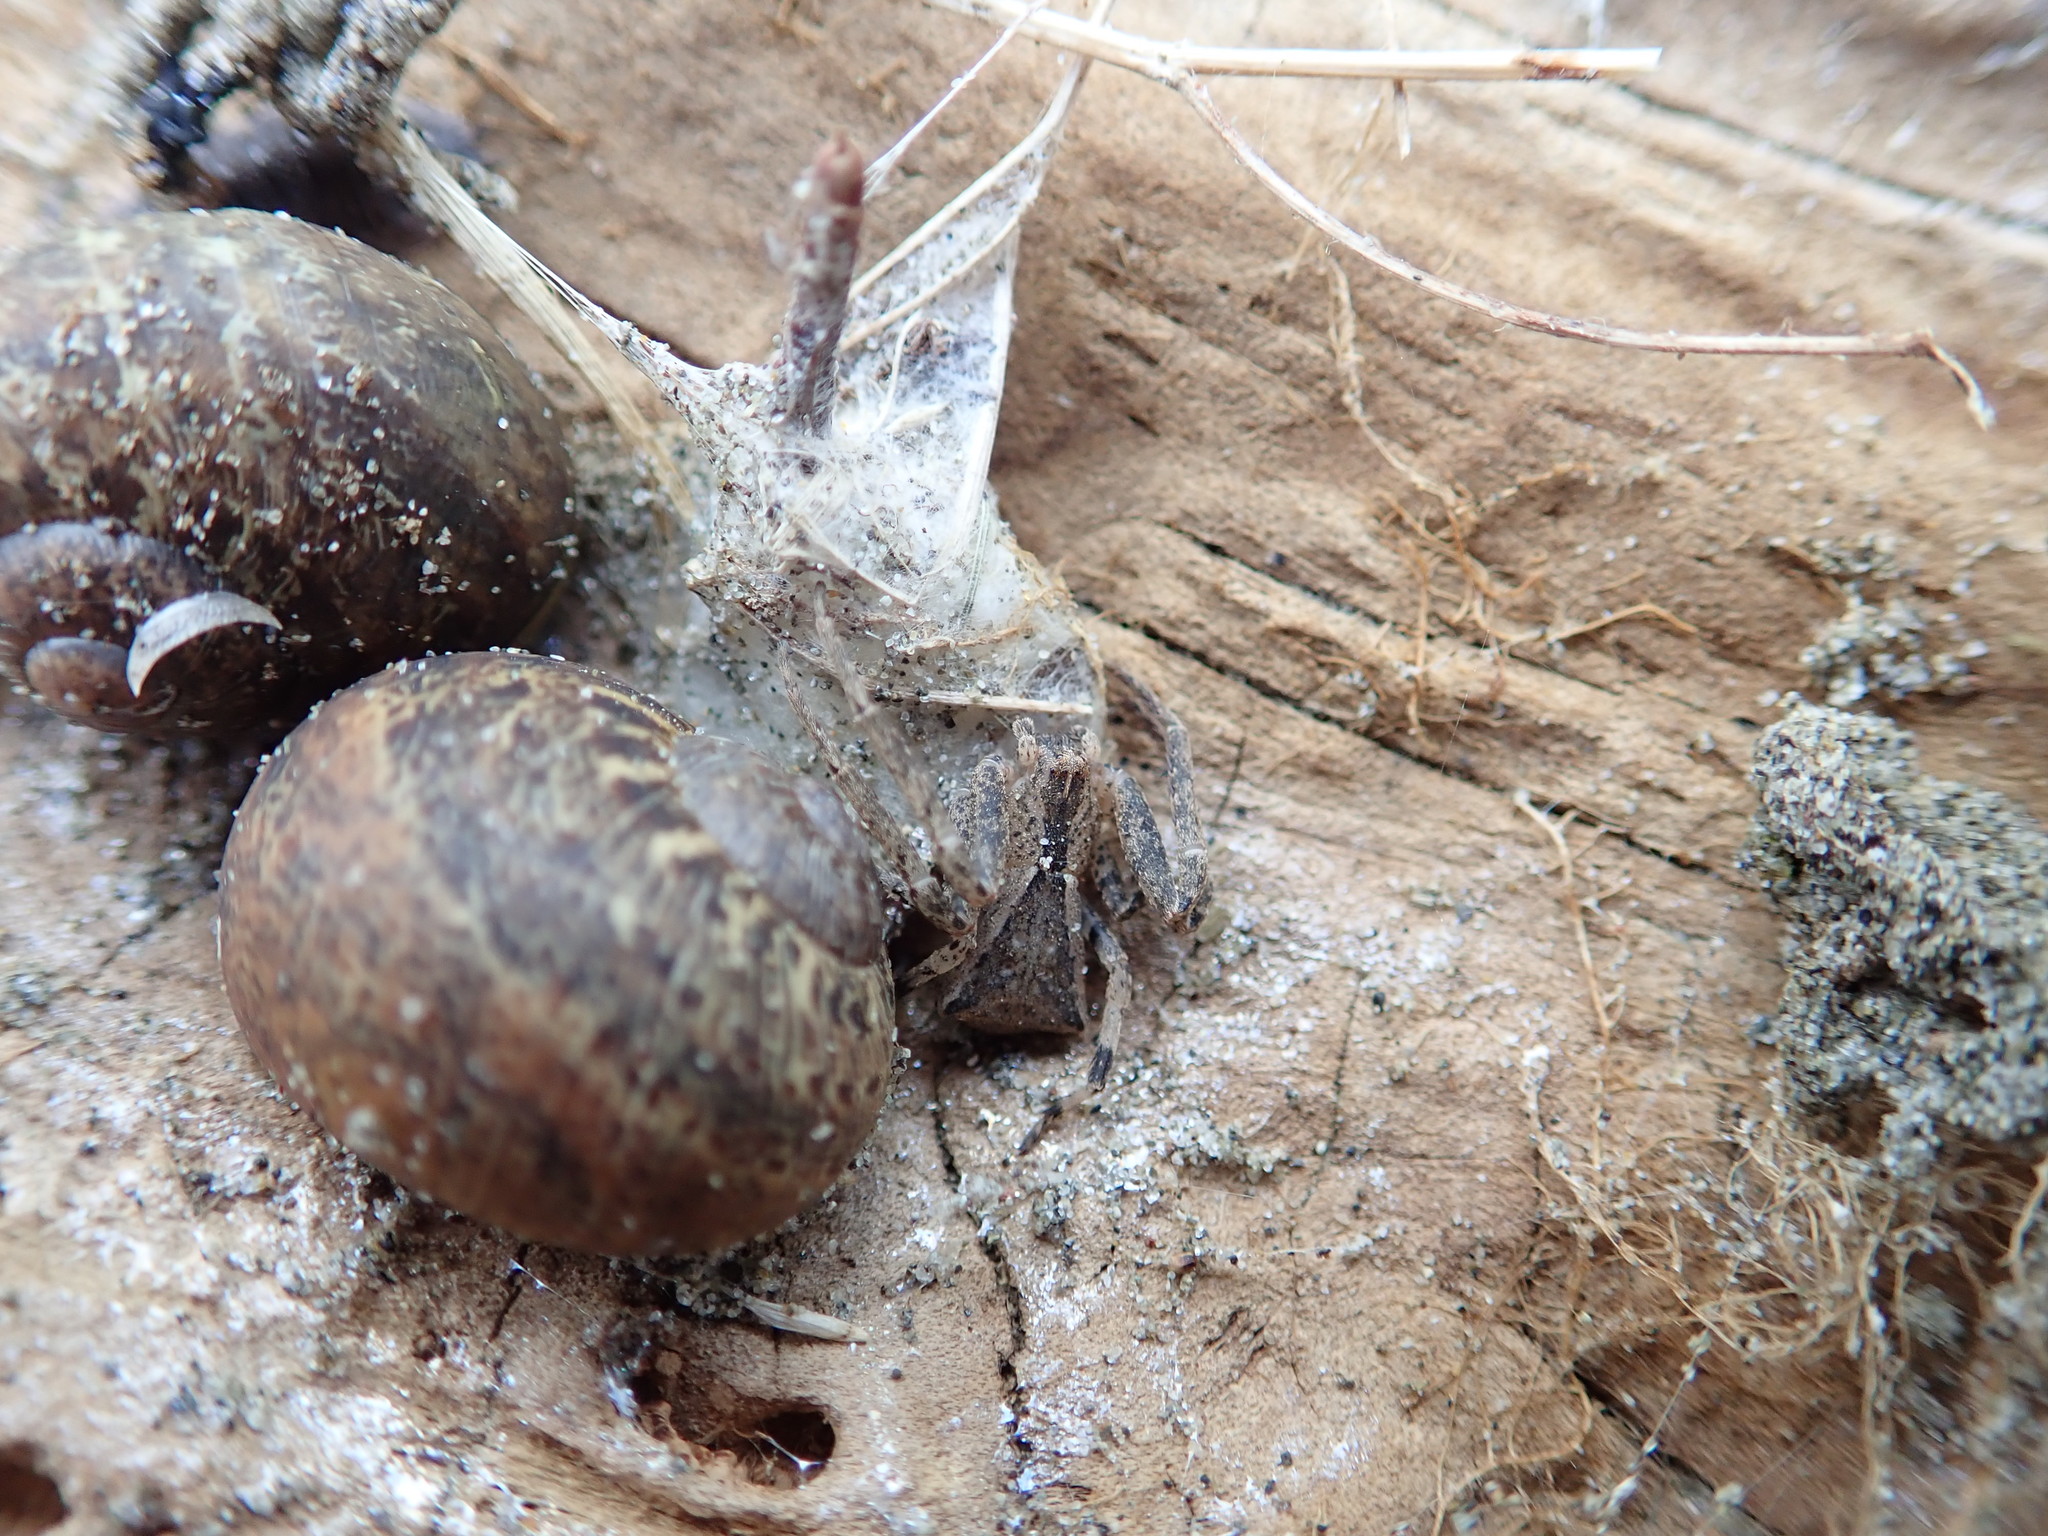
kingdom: Animalia
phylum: Arthropoda
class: Arachnida
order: Araneae
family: Thomisidae
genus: Sidymella
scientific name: Sidymella trapezia
